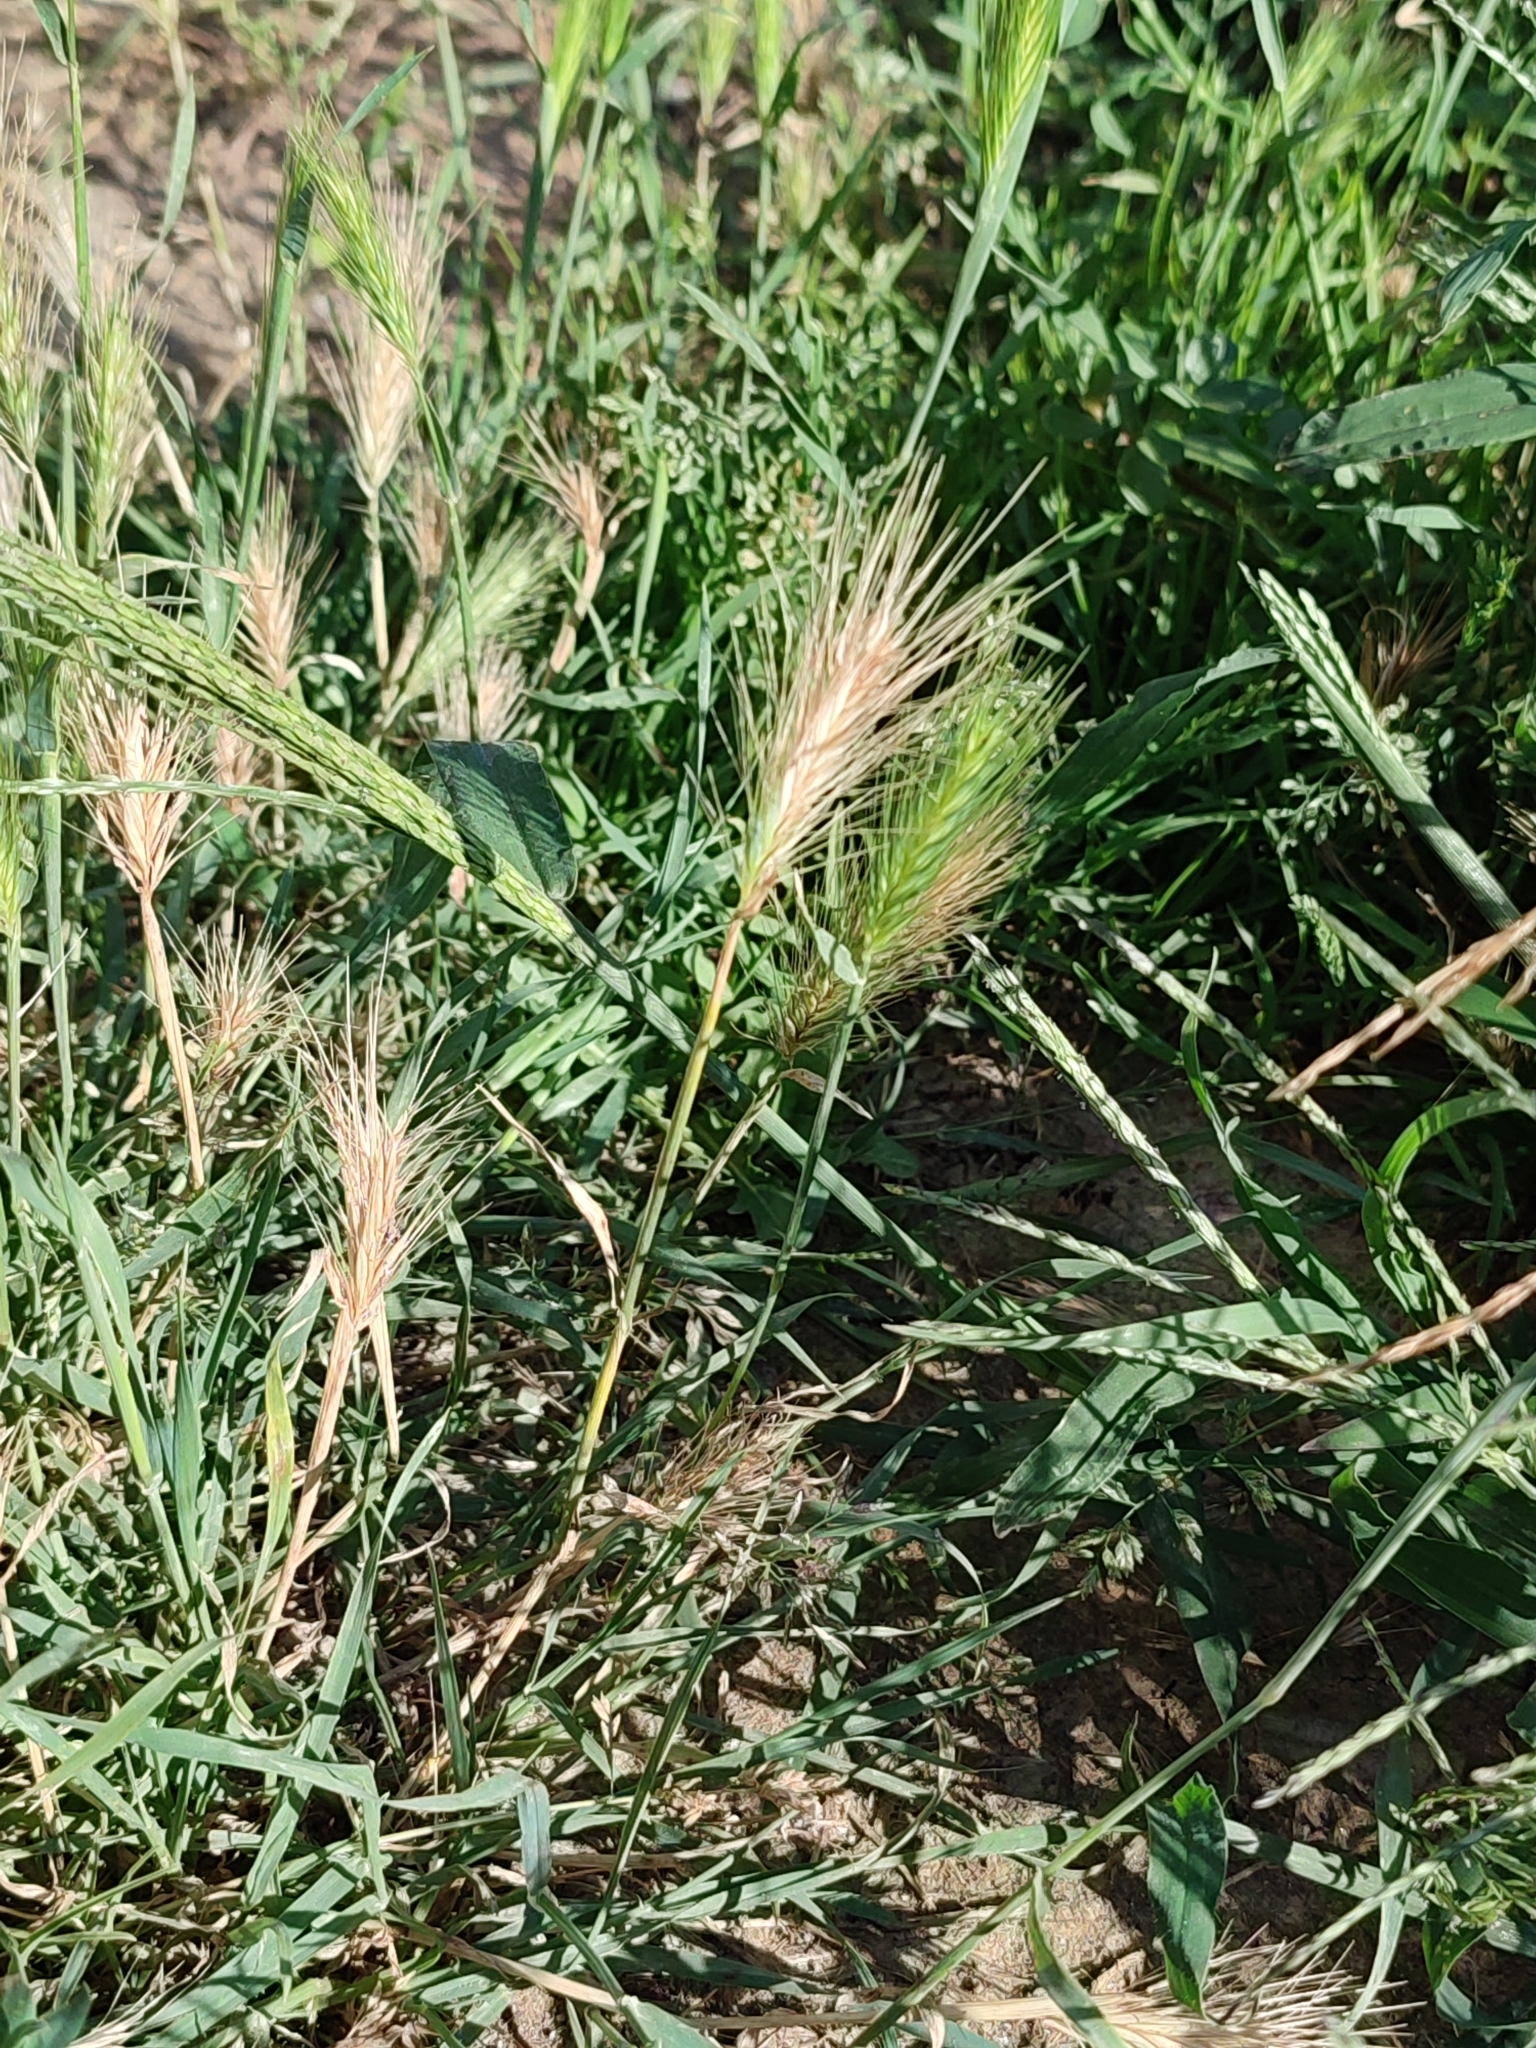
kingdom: Plantae
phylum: Tracheophyta
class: Liliopsida
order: Poales
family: Poaceae
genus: Hordeum
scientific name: Hordeum murinum
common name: Wall barley
